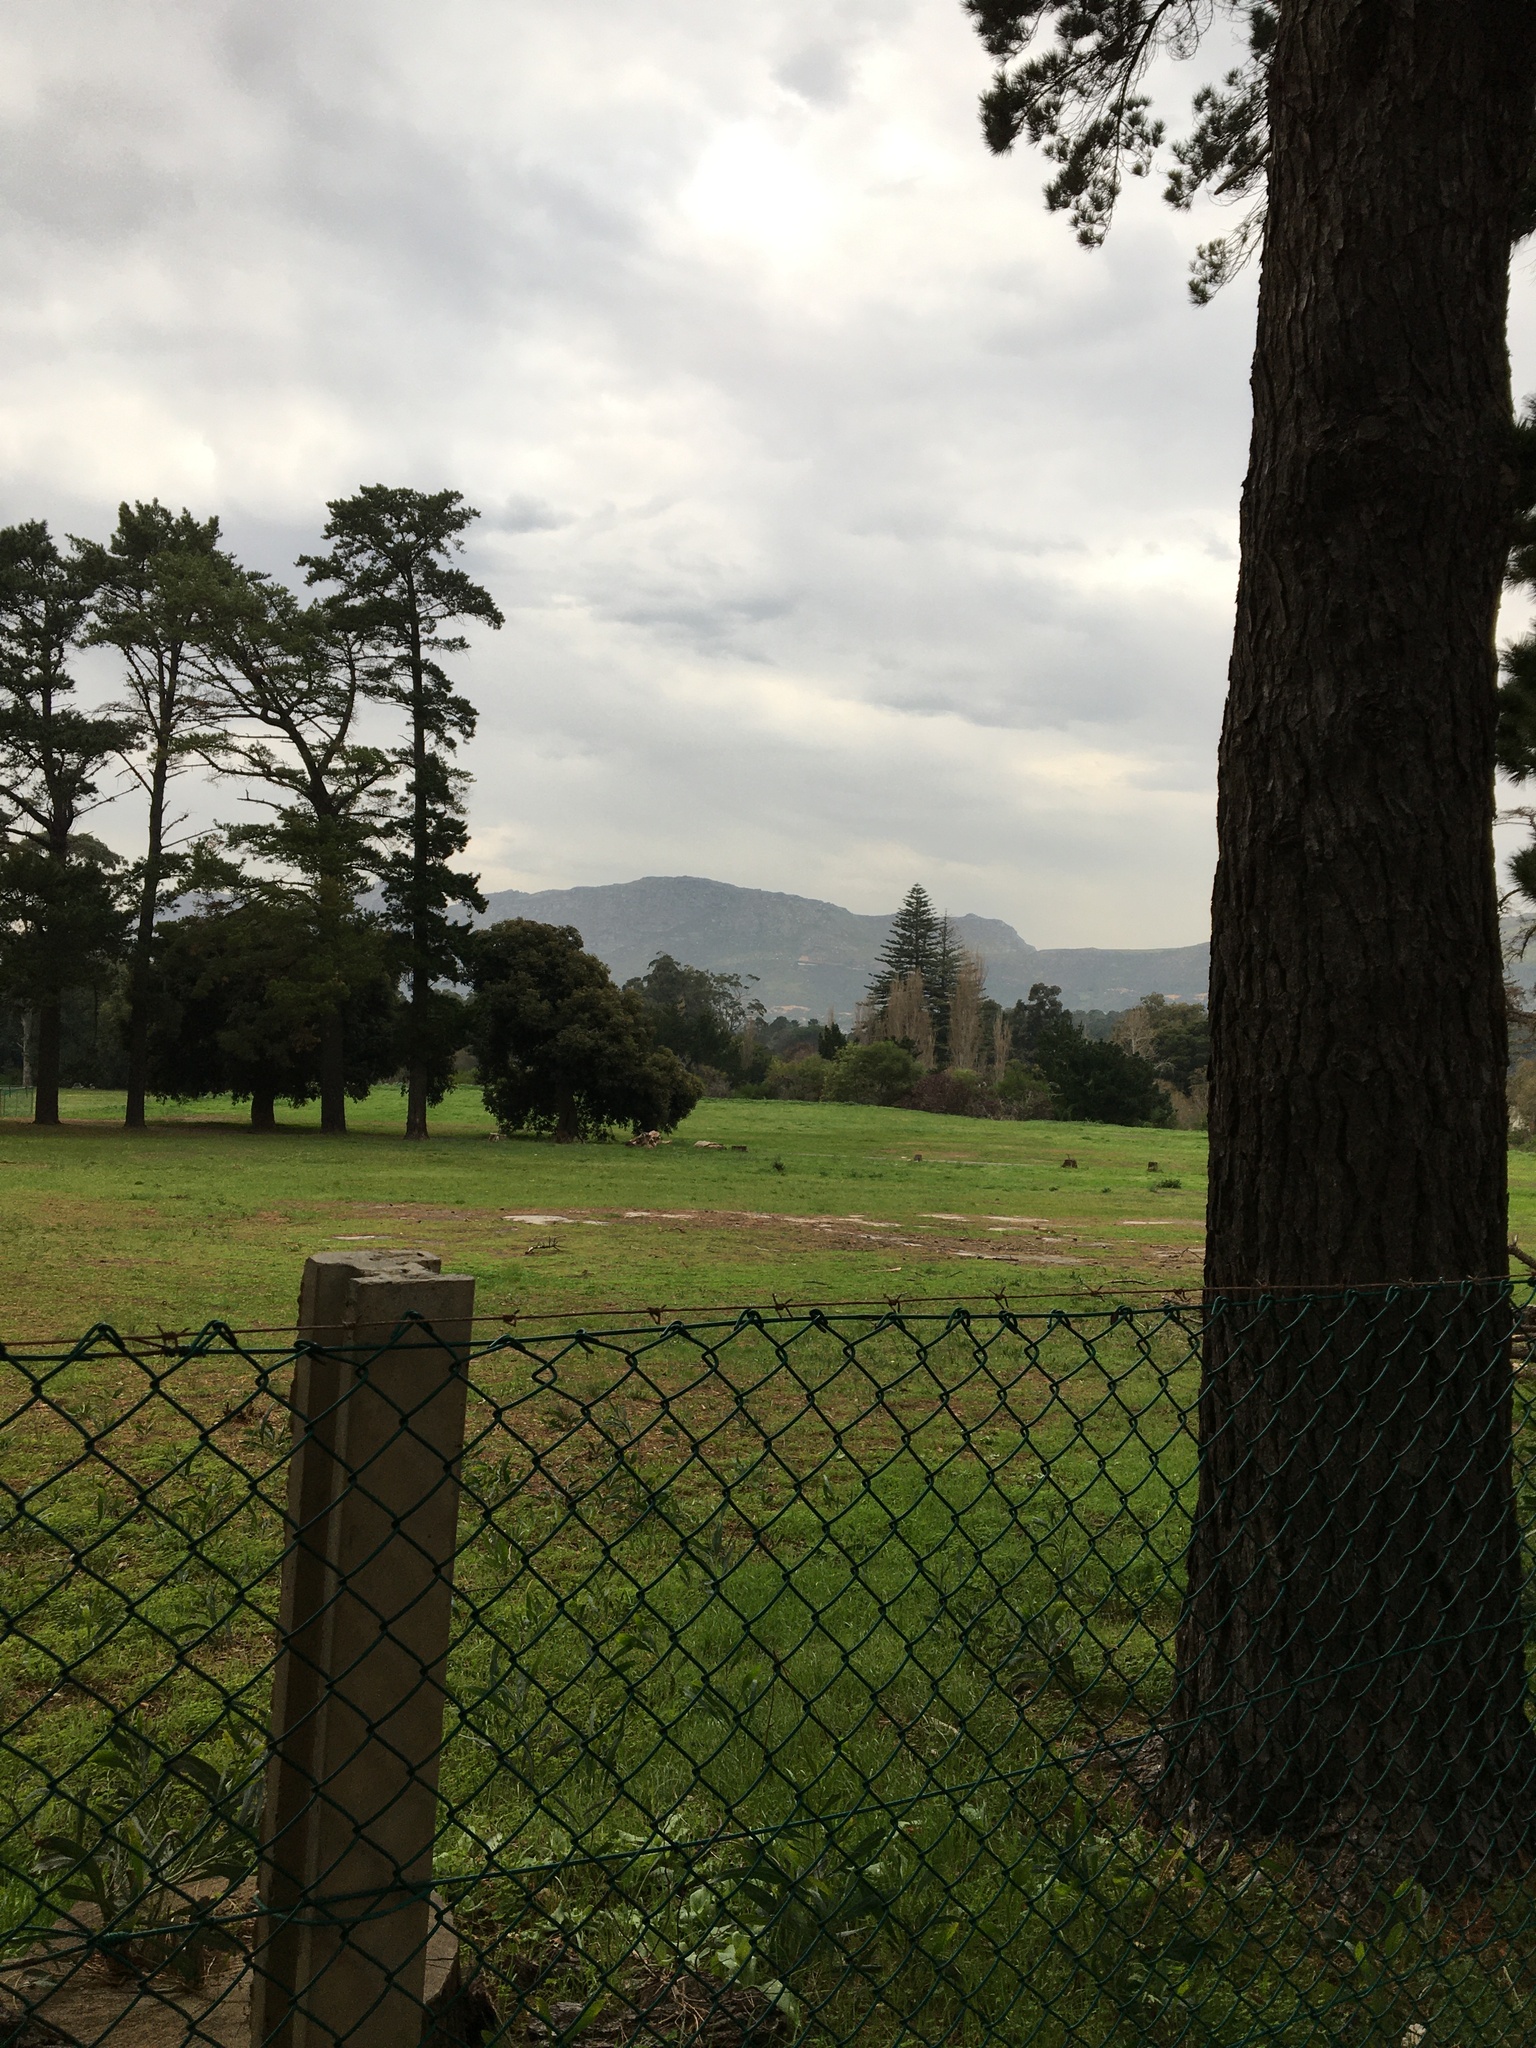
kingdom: Plantae
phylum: Tracheophyta
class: Magnoliopsida
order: Fabales
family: Fabaceae
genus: Acacia
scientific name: Acacia saligna
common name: Orange wattle
